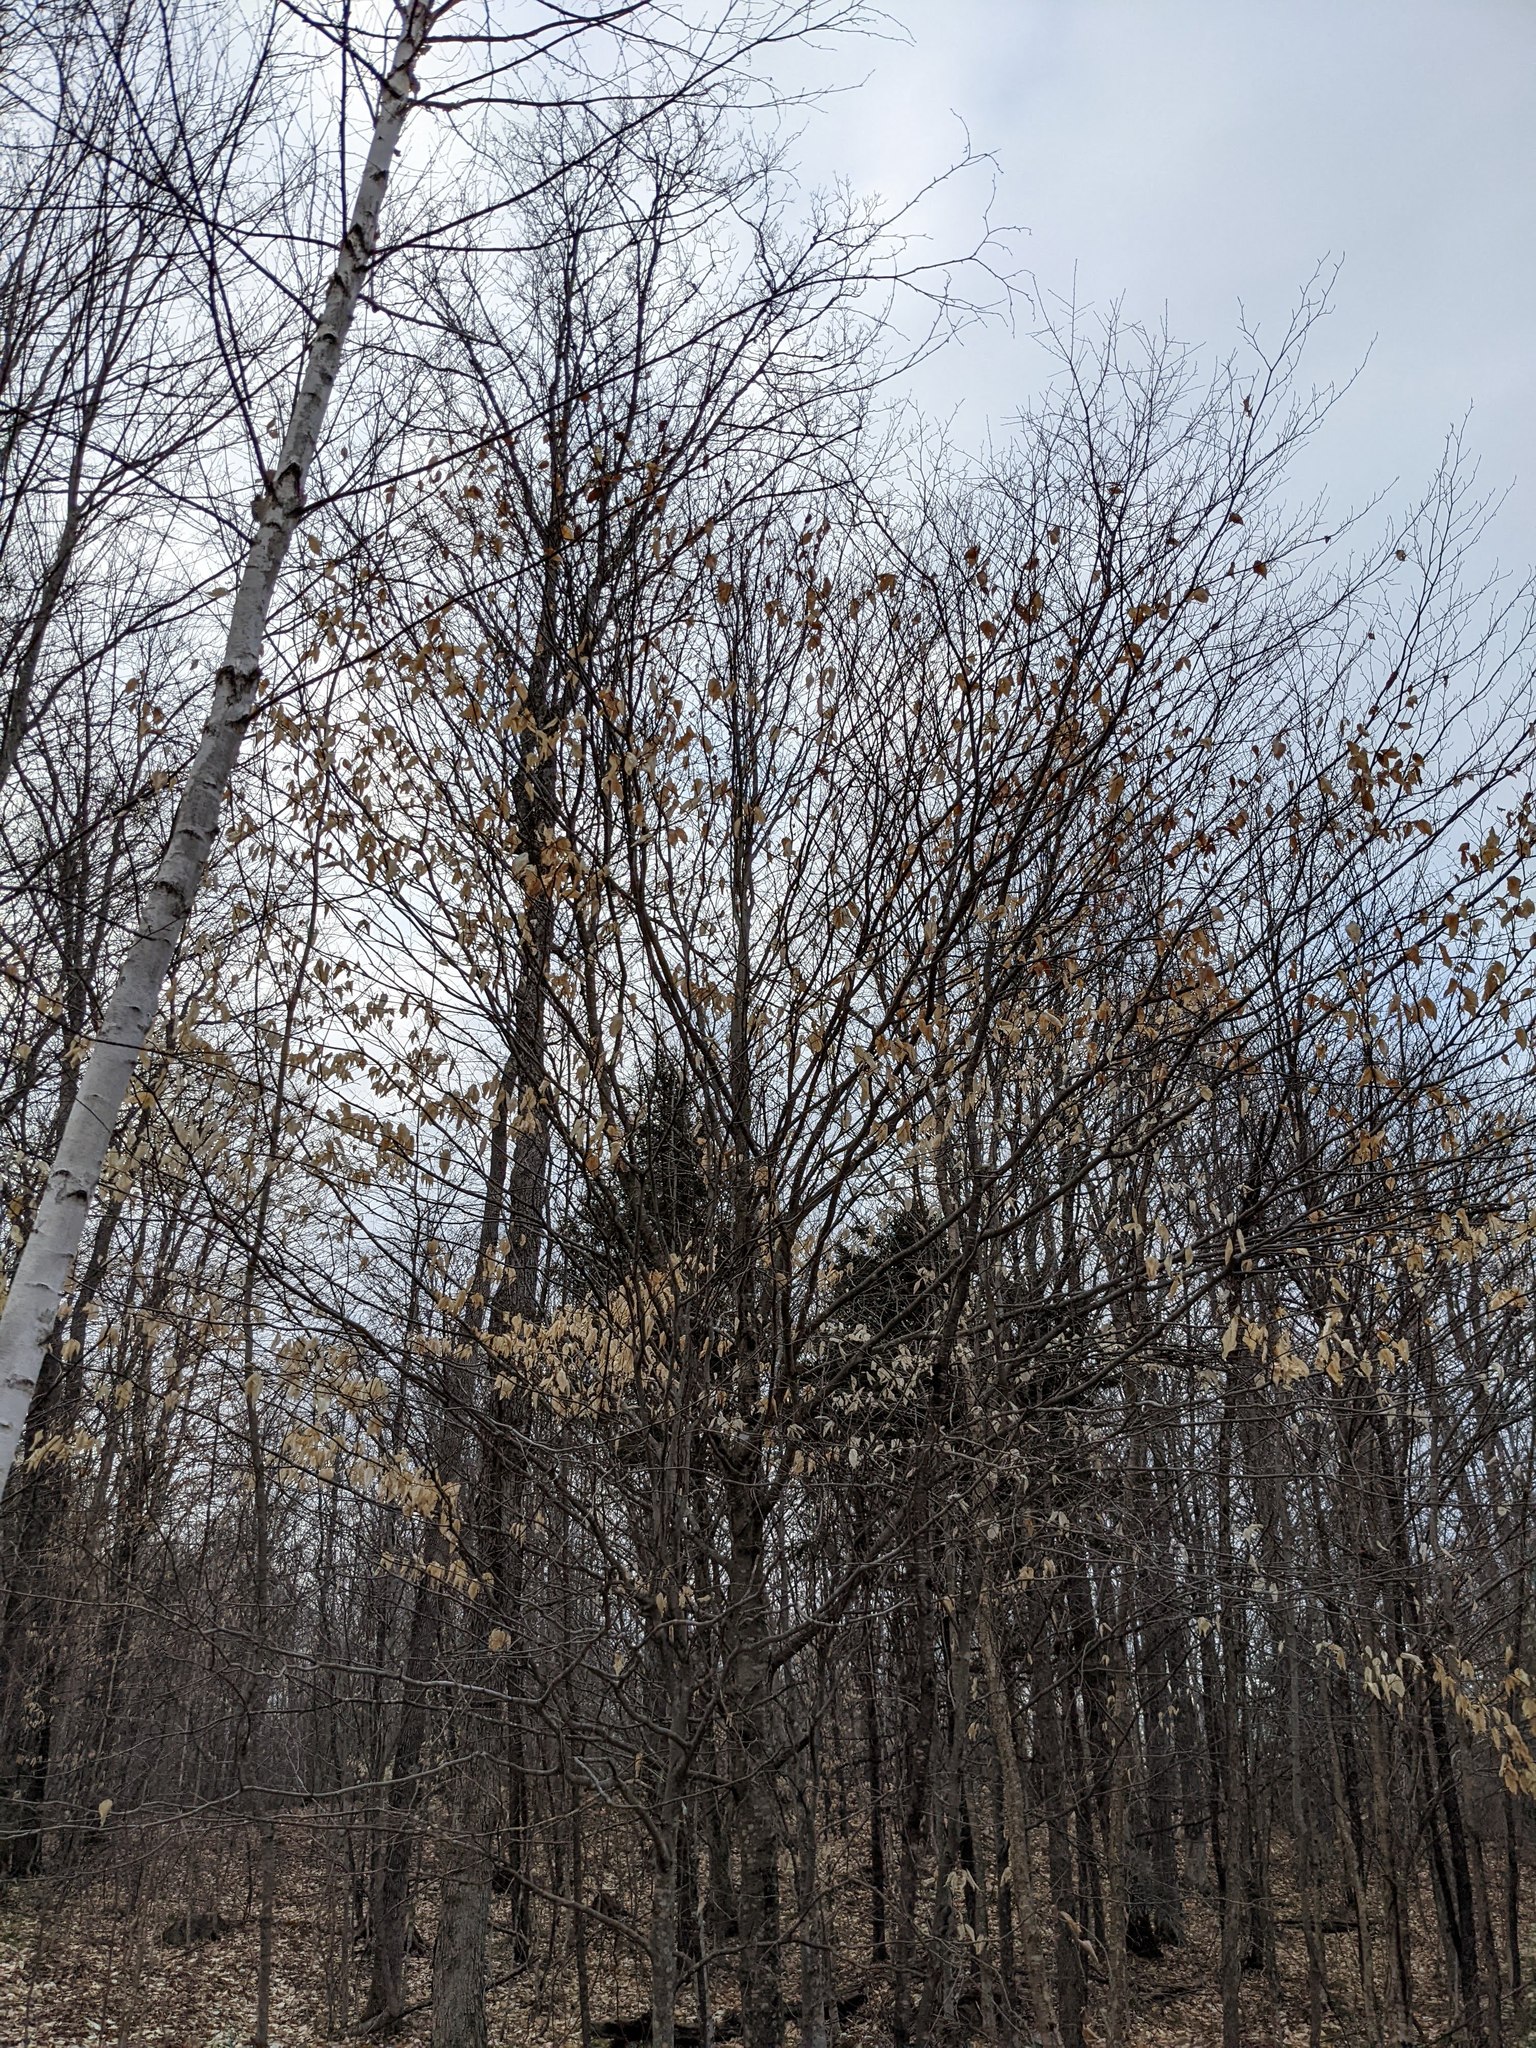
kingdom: Plantae
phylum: Tracheophyta
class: Magnoliopsida
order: Fagales
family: Fagaceae
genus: Fagus
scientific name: Fagus grandifolia
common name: American beech
